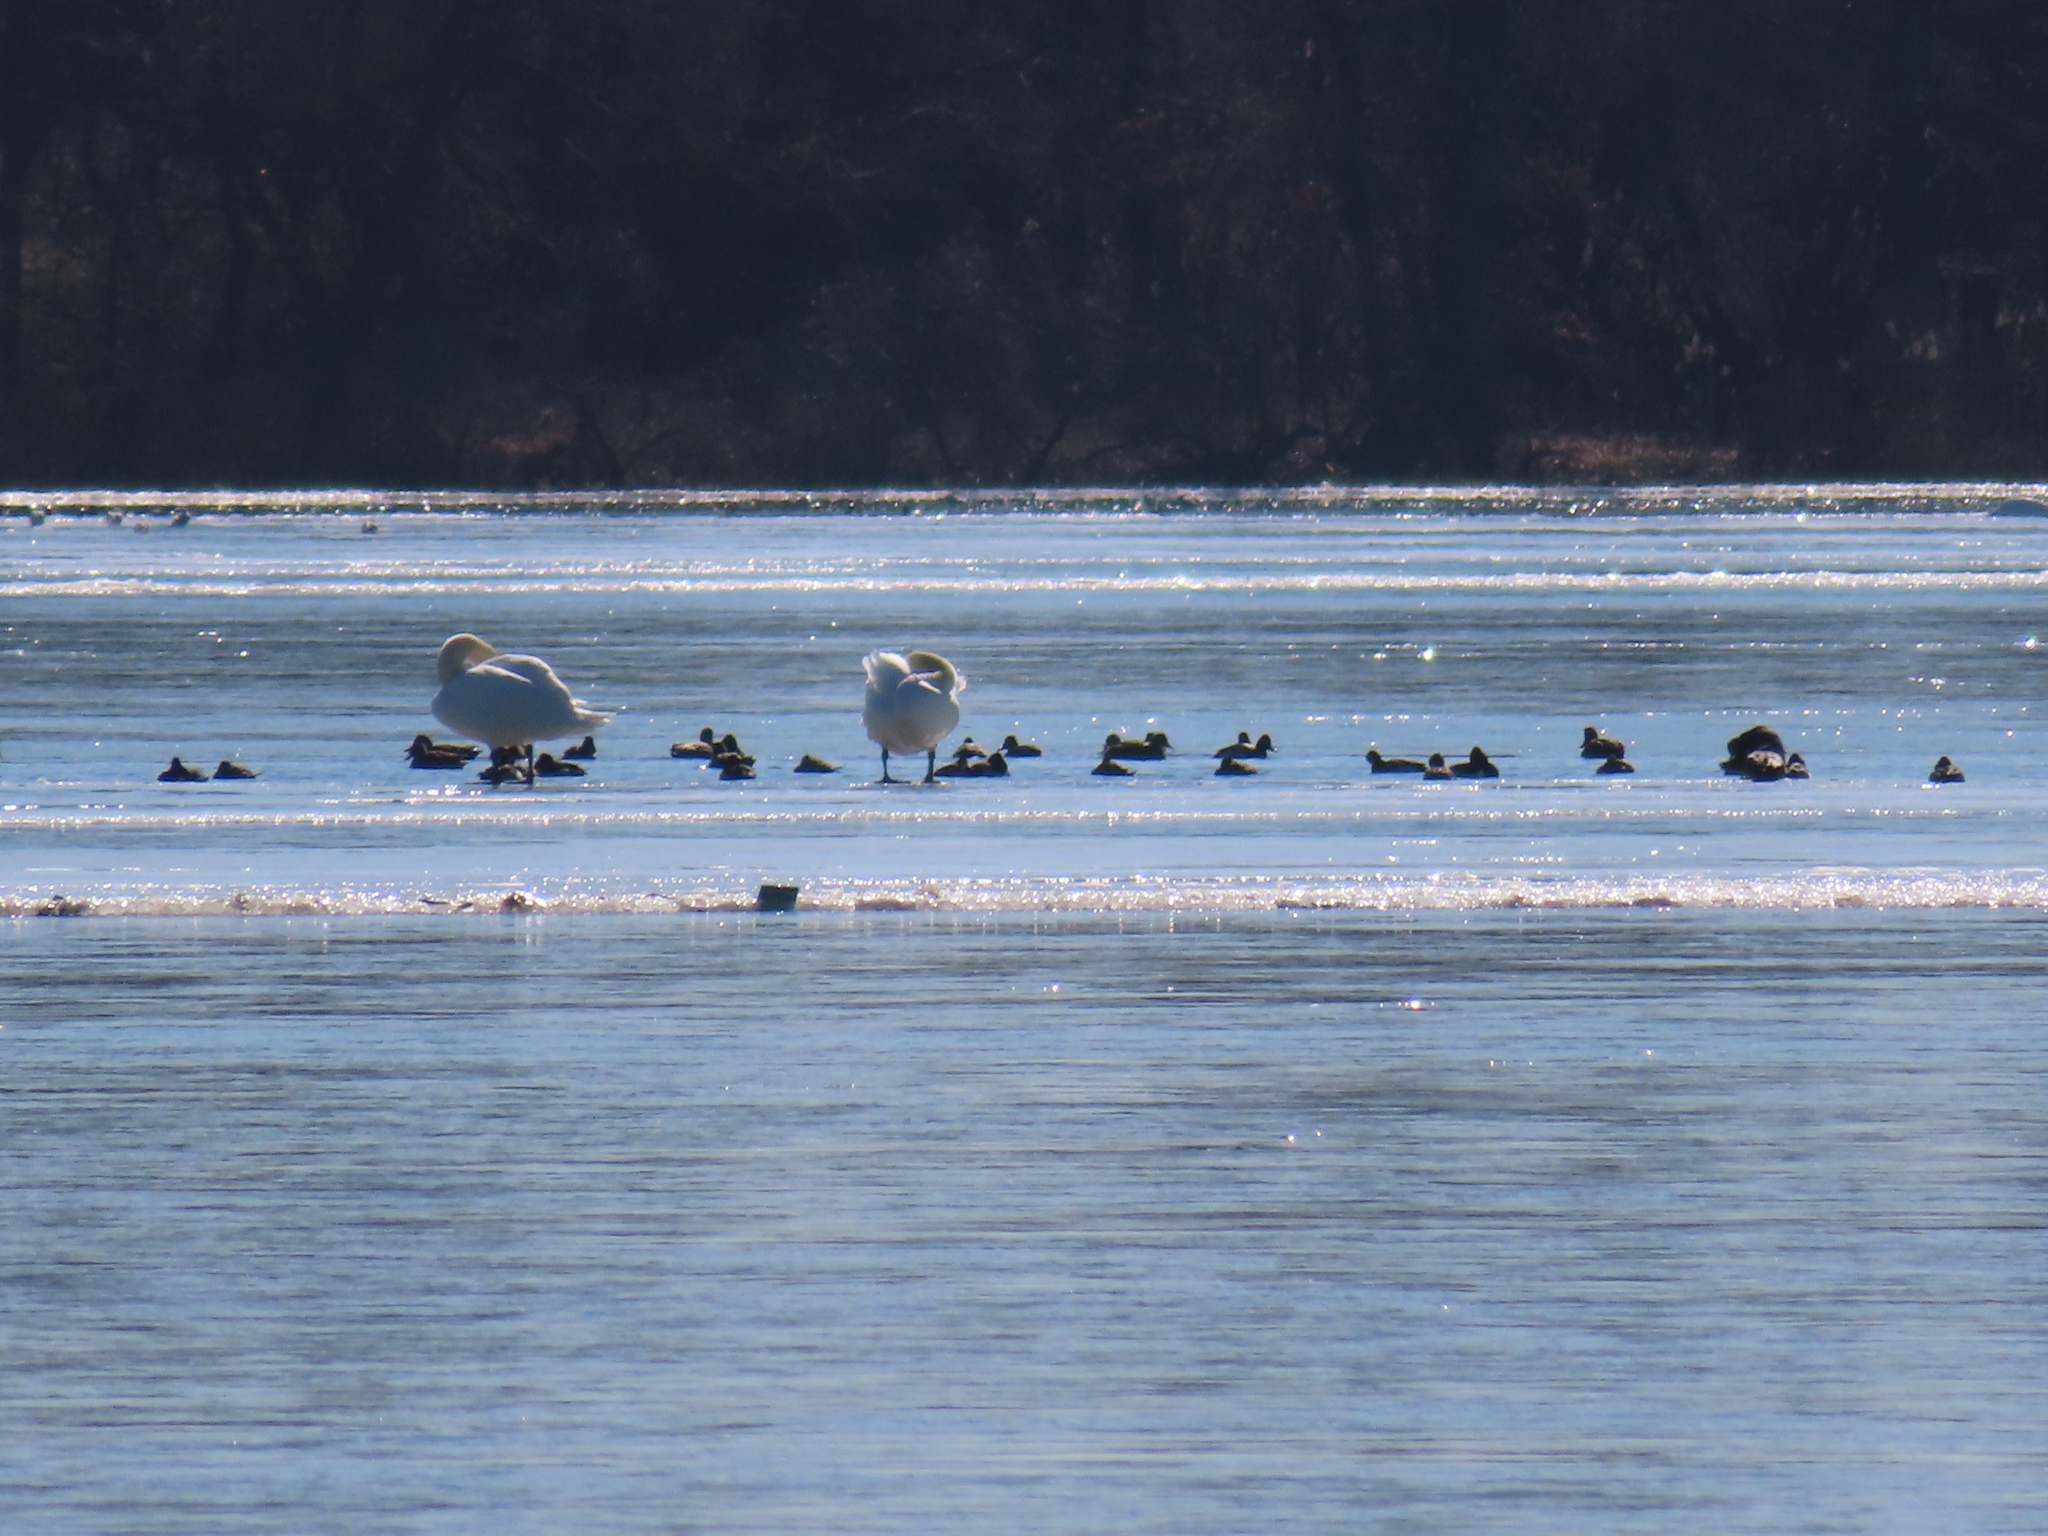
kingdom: Animalia
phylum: Chordata
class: Aves
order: Anseriformes
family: Anatidae
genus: Cygnus
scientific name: Cygnus olor
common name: Mute swan
